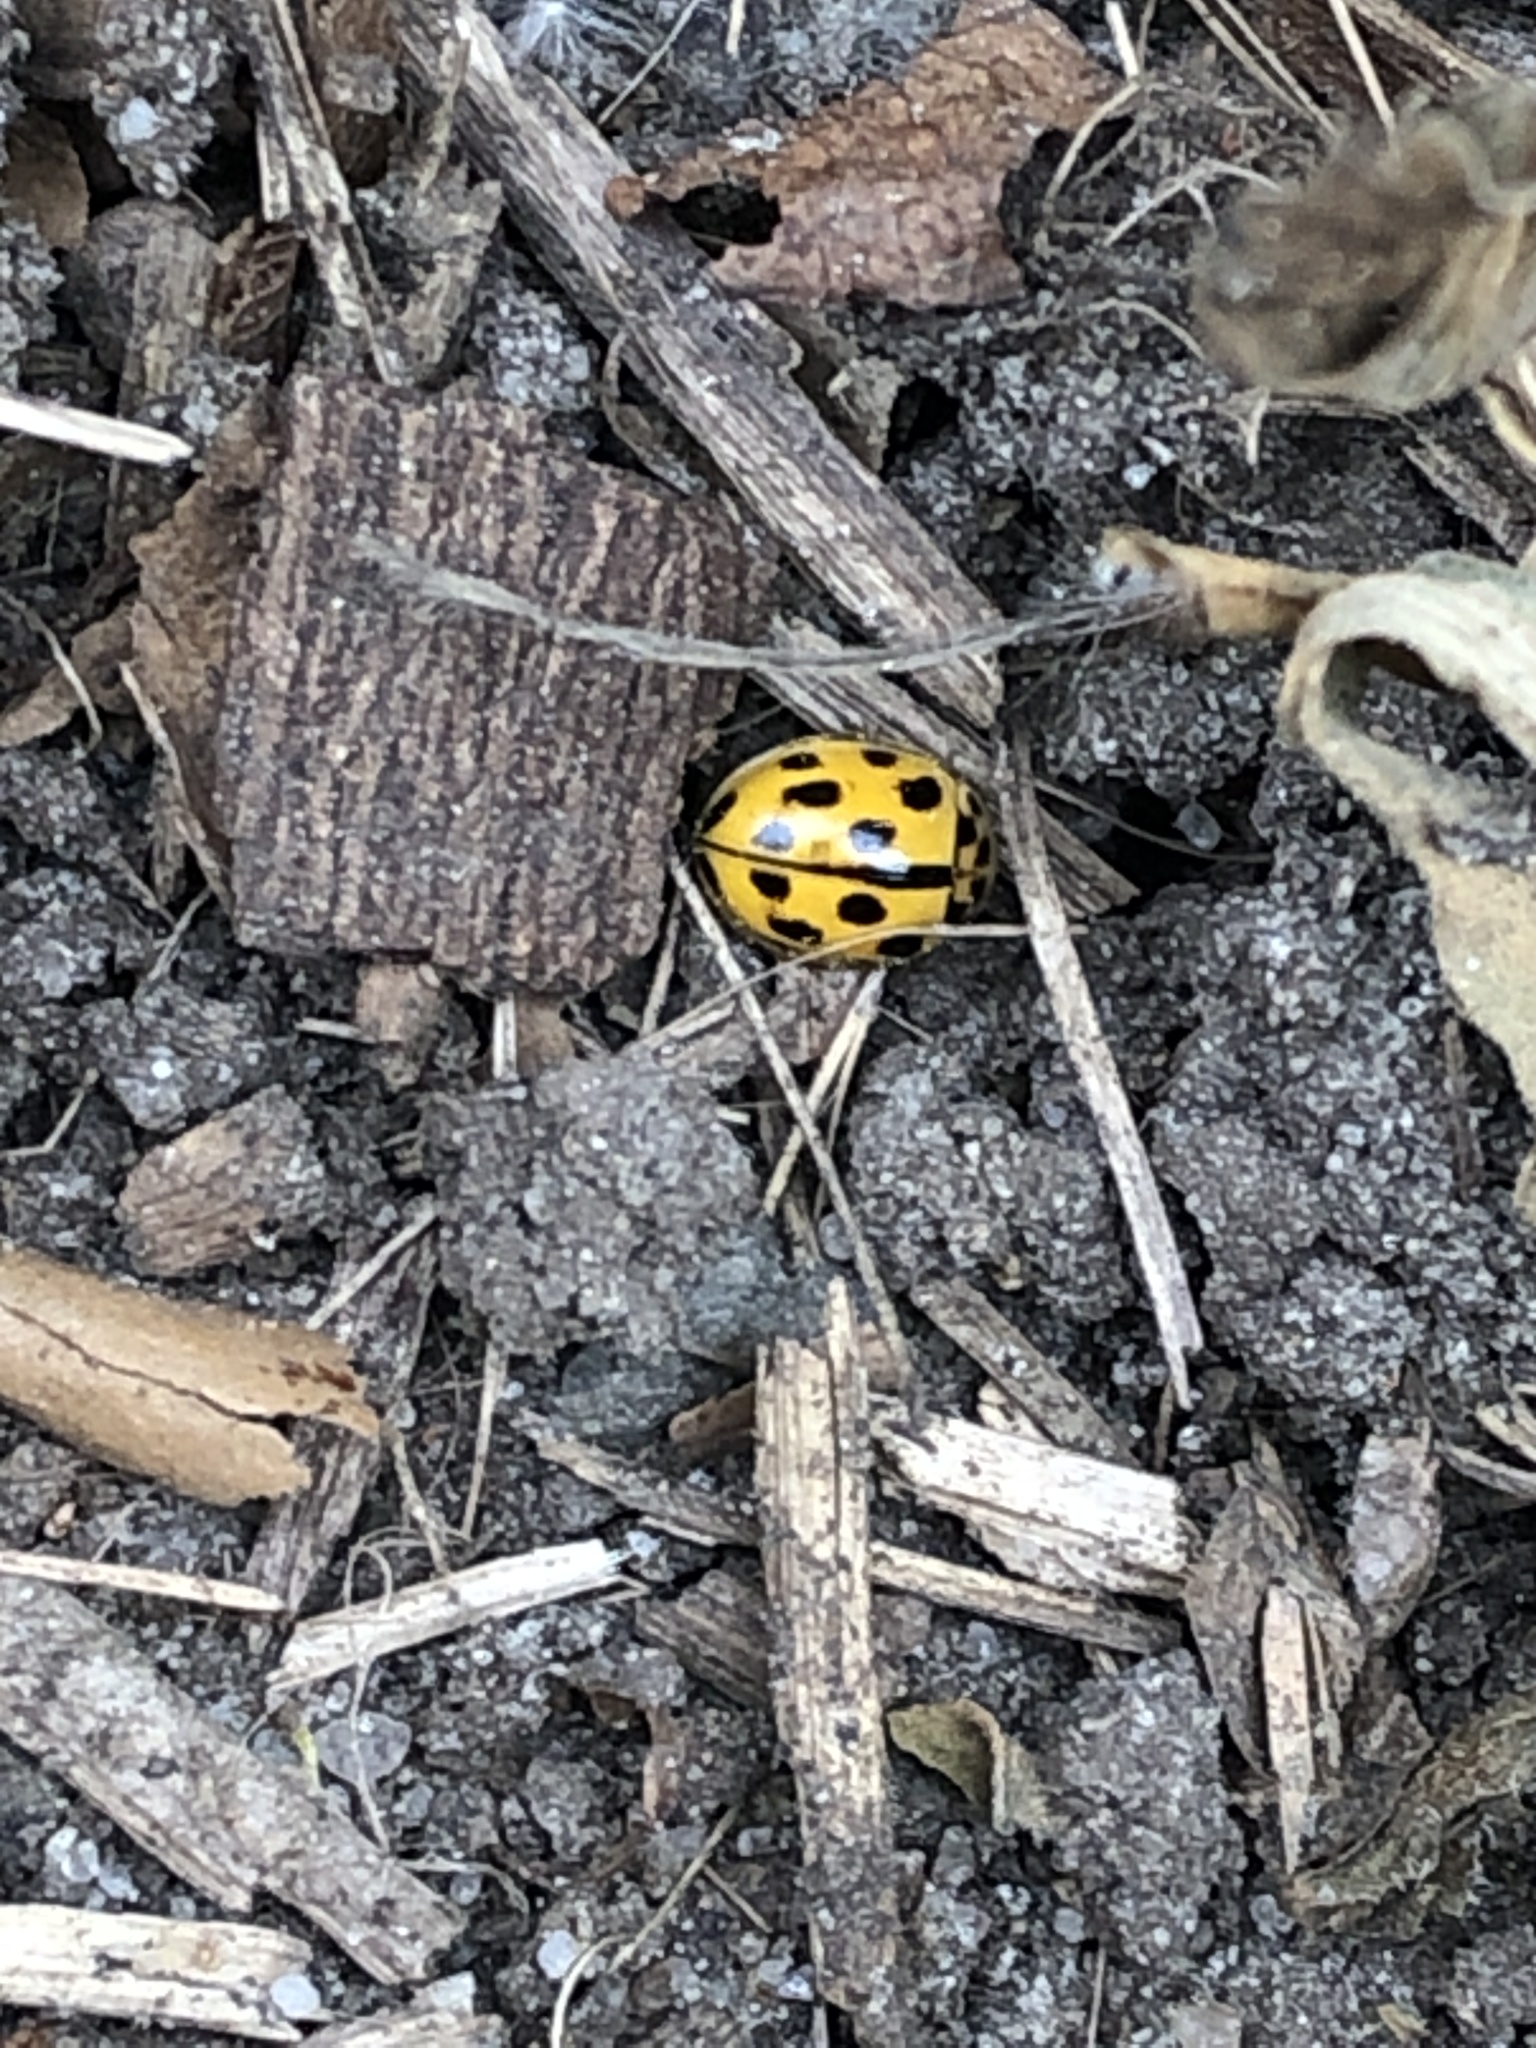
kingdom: Animalia
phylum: Arthropoda
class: Insecta
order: Coleoptera
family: Coccinellidae
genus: Propylaea
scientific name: Propylaea quatuordecimpunctata
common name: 14-spotted ladybird beetle
